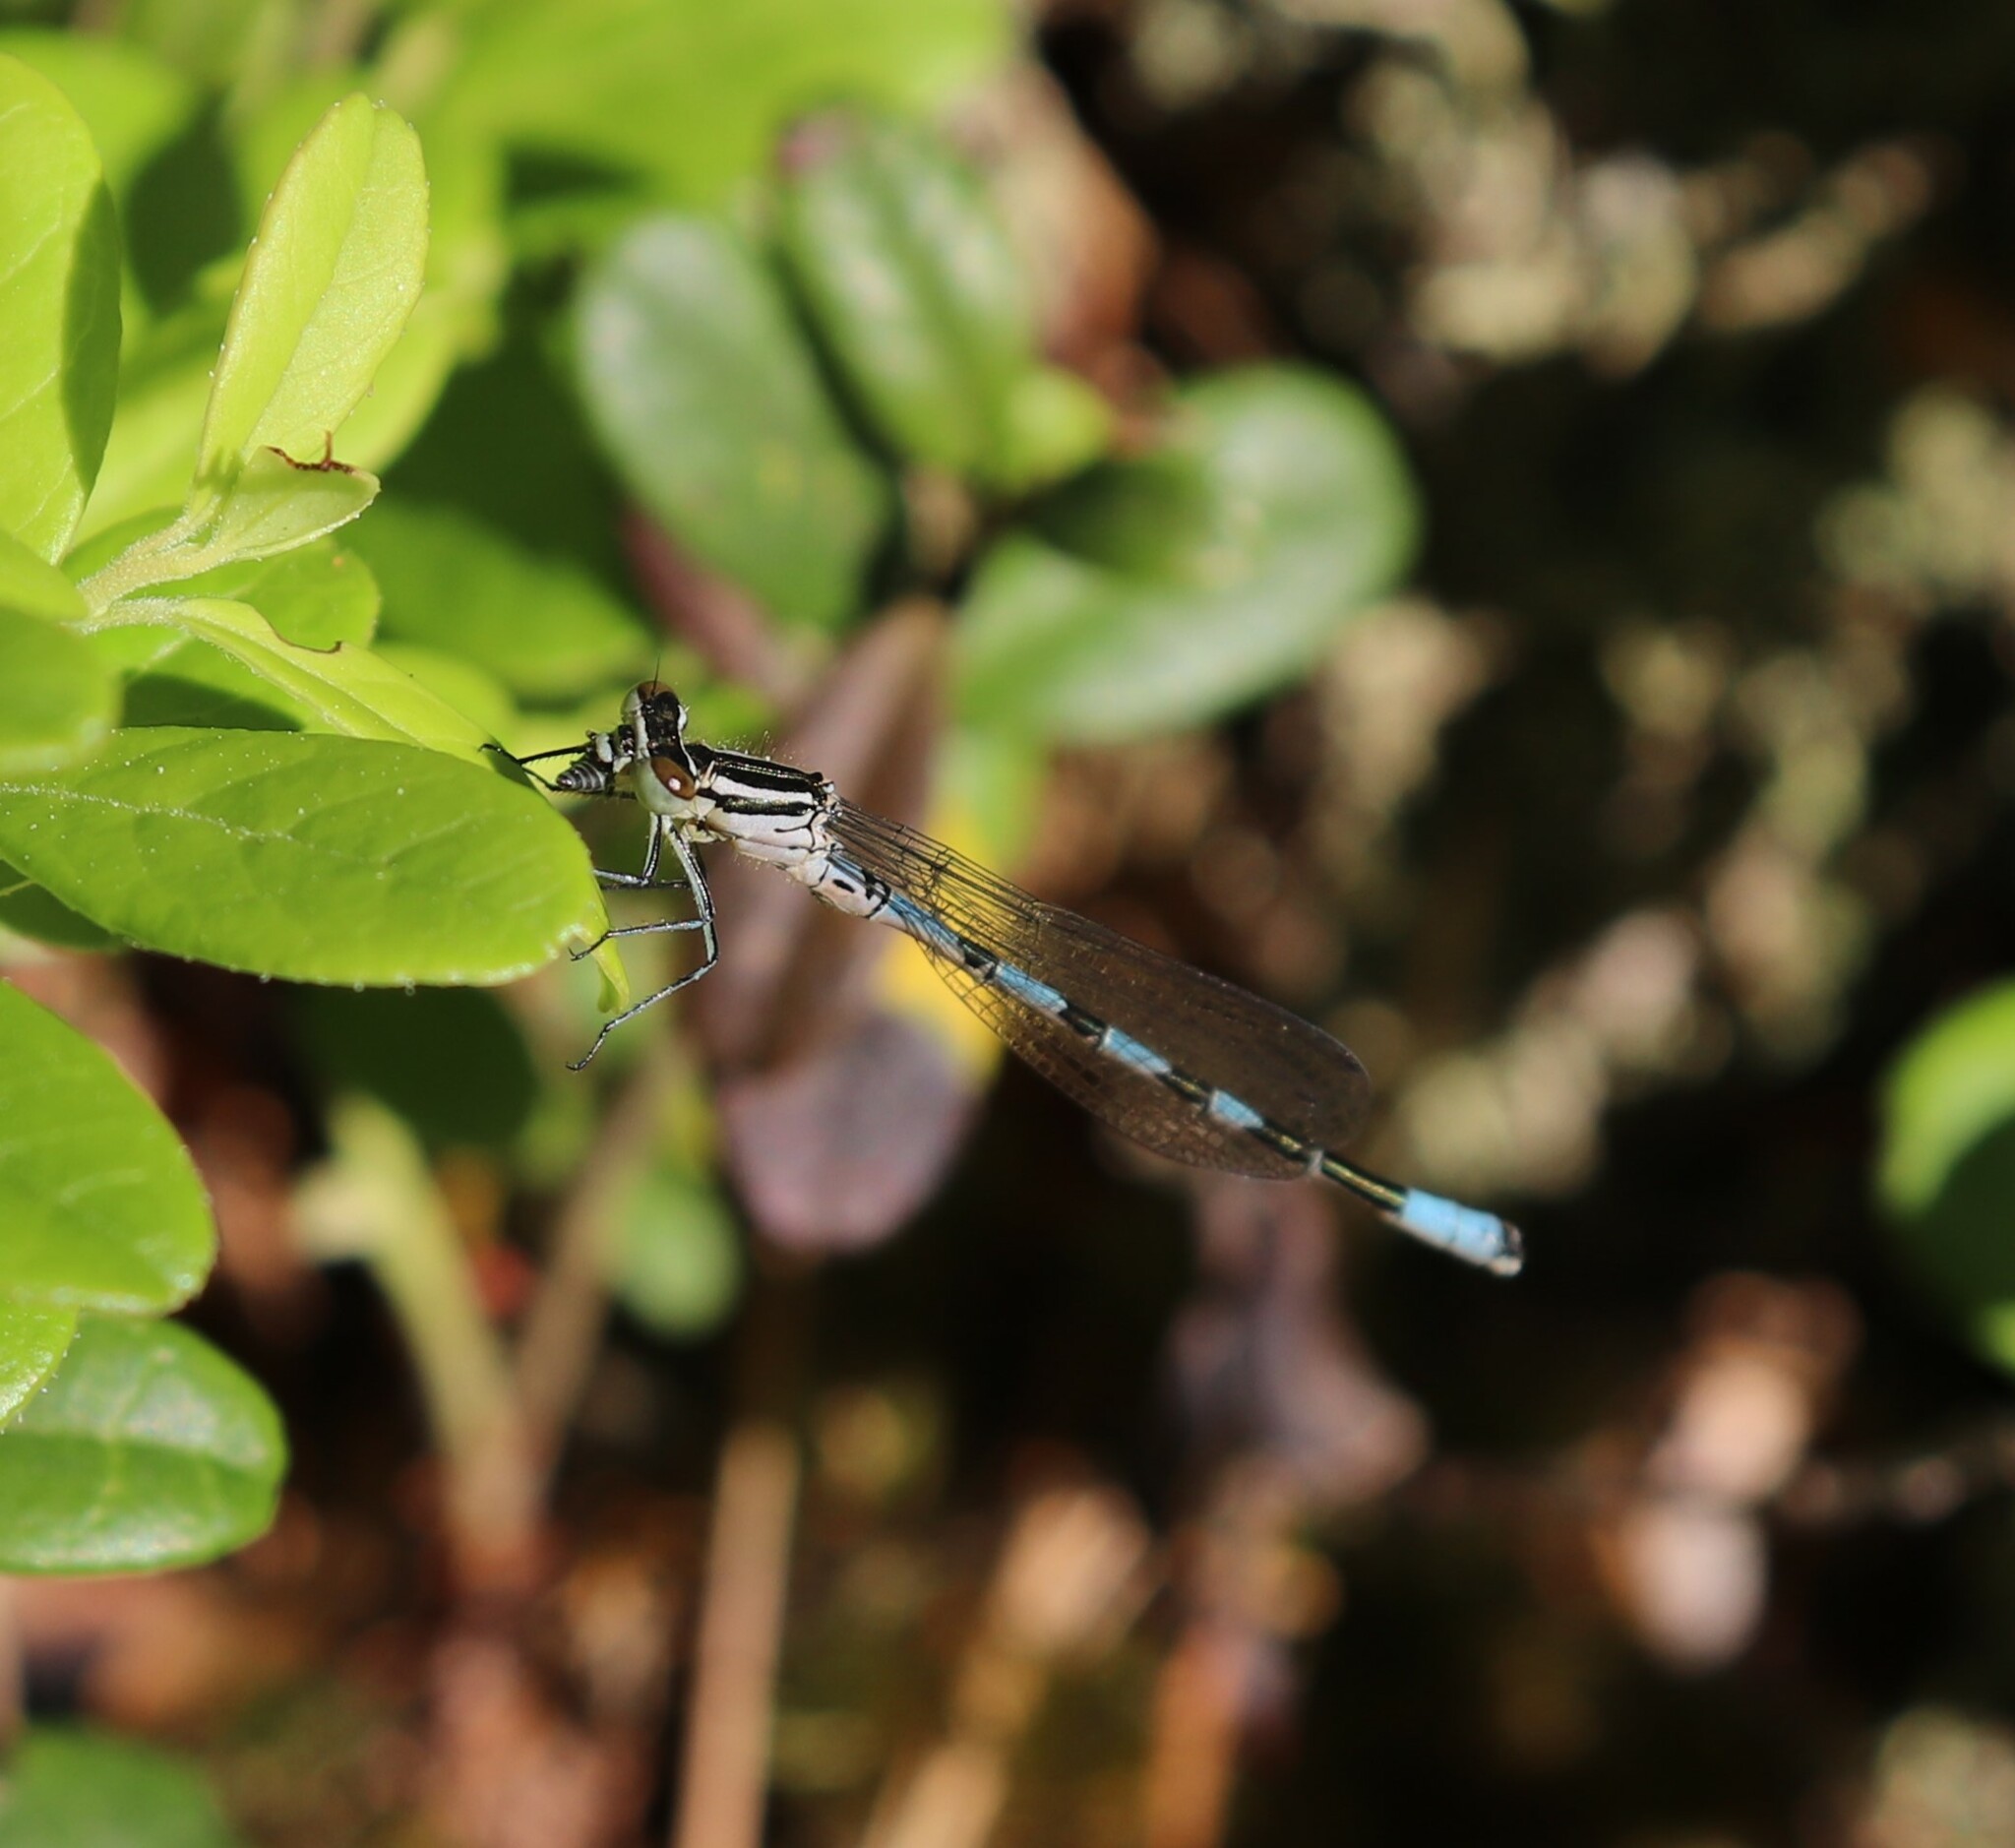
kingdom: Animalia
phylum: Arthropoda
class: Insecta
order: Odonata
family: Coenagrionidae
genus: Coenagrion
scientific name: Coenagrion hastulatum
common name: Spearhead bluet
